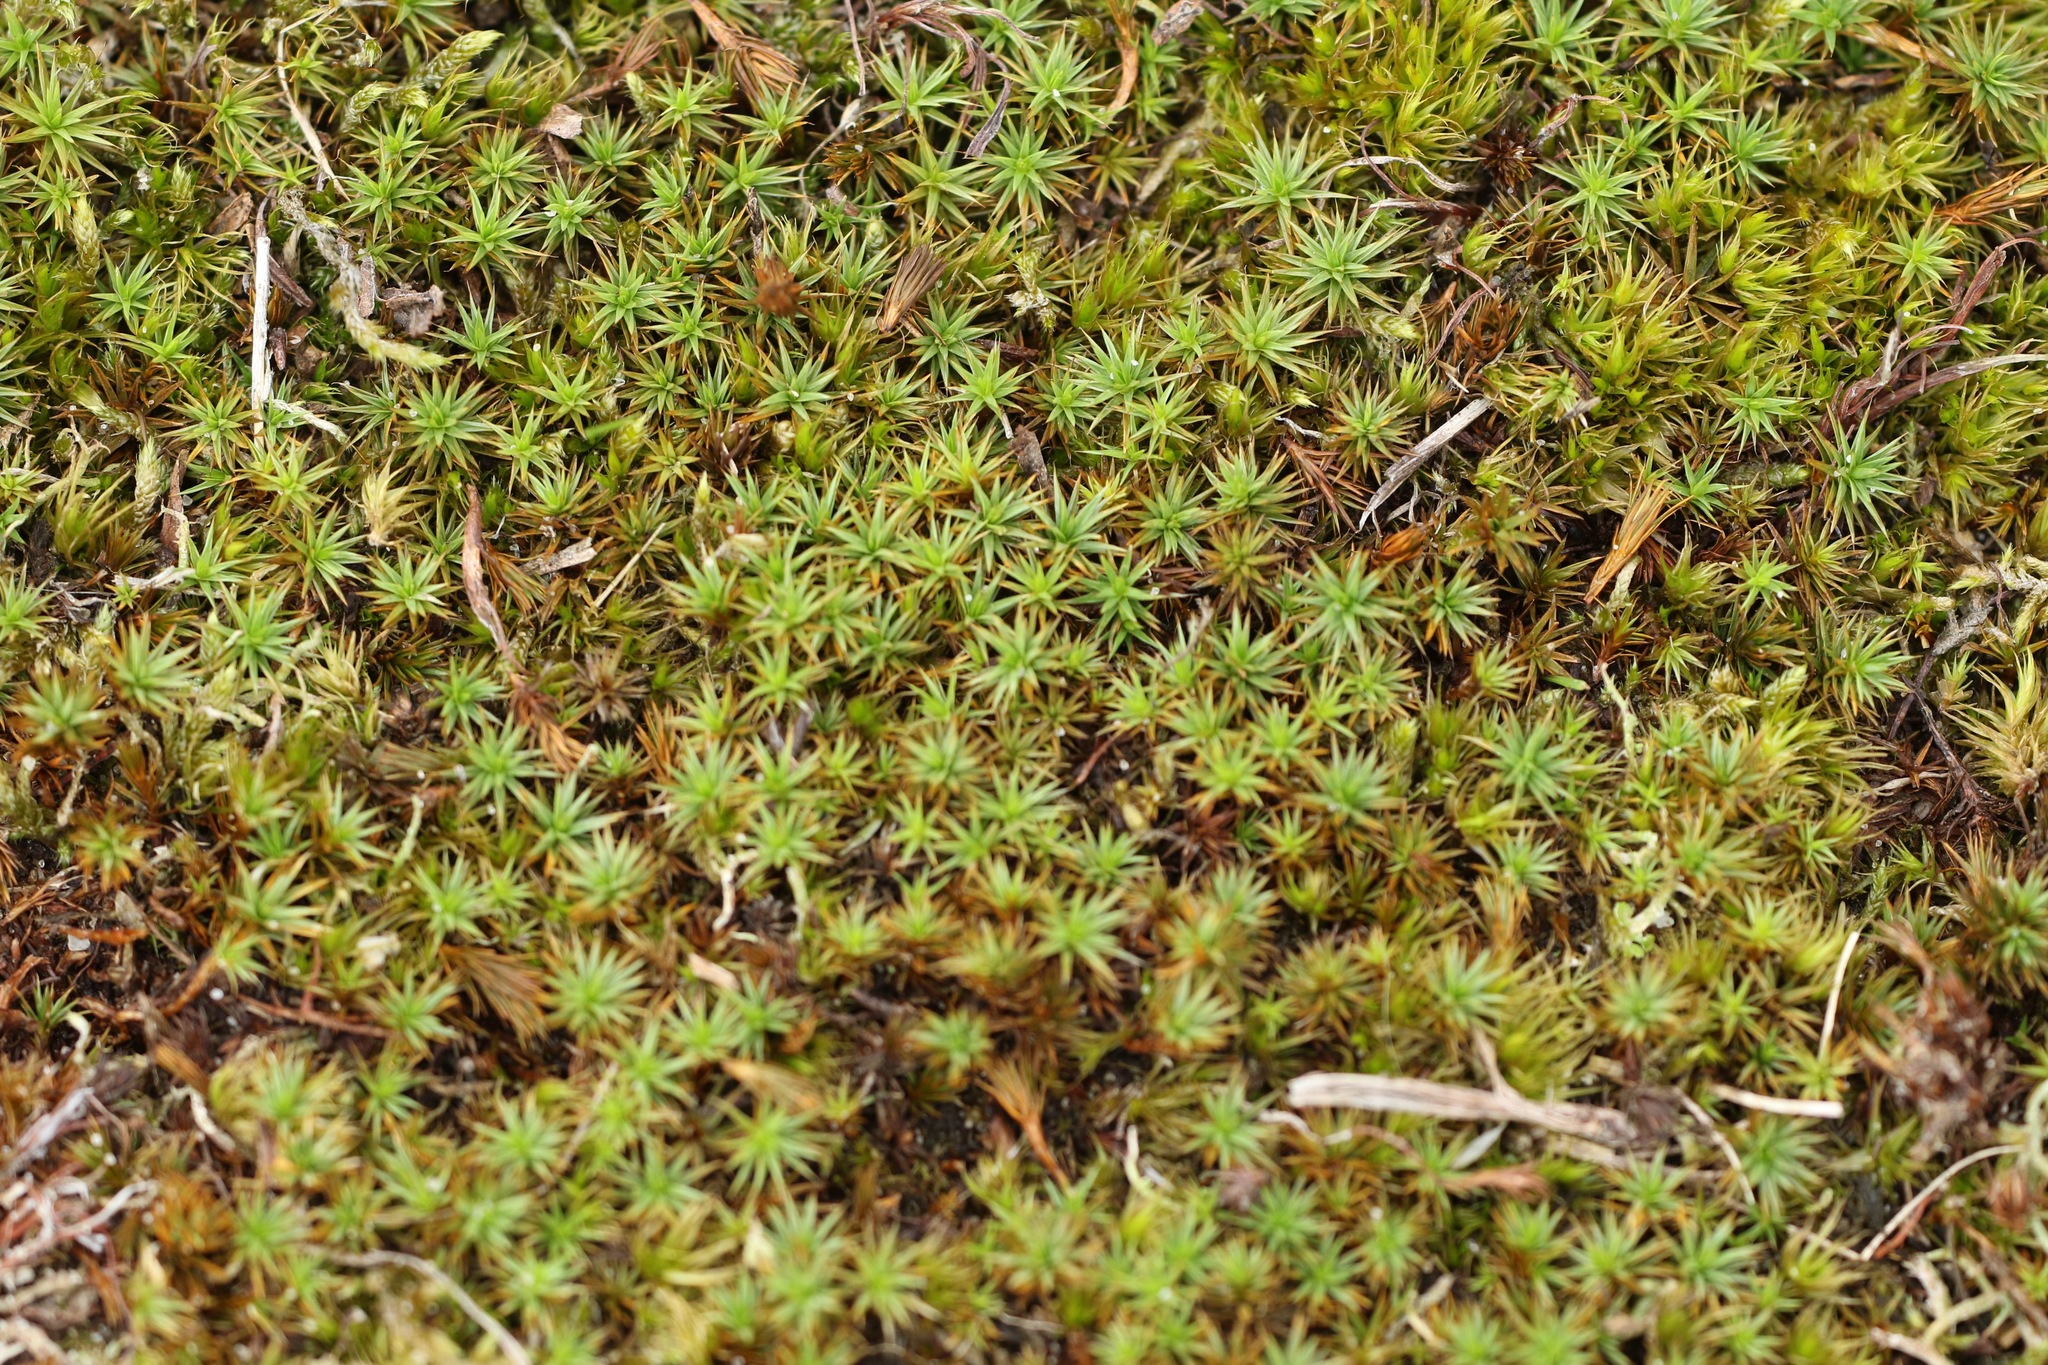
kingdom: Plantae
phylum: Bryophyta
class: Polytrichopsida
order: Polytrichales
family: Polytrichaceae
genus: Polytrichum
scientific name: Polytrichum juniperinum
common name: Juniper haircap moss
